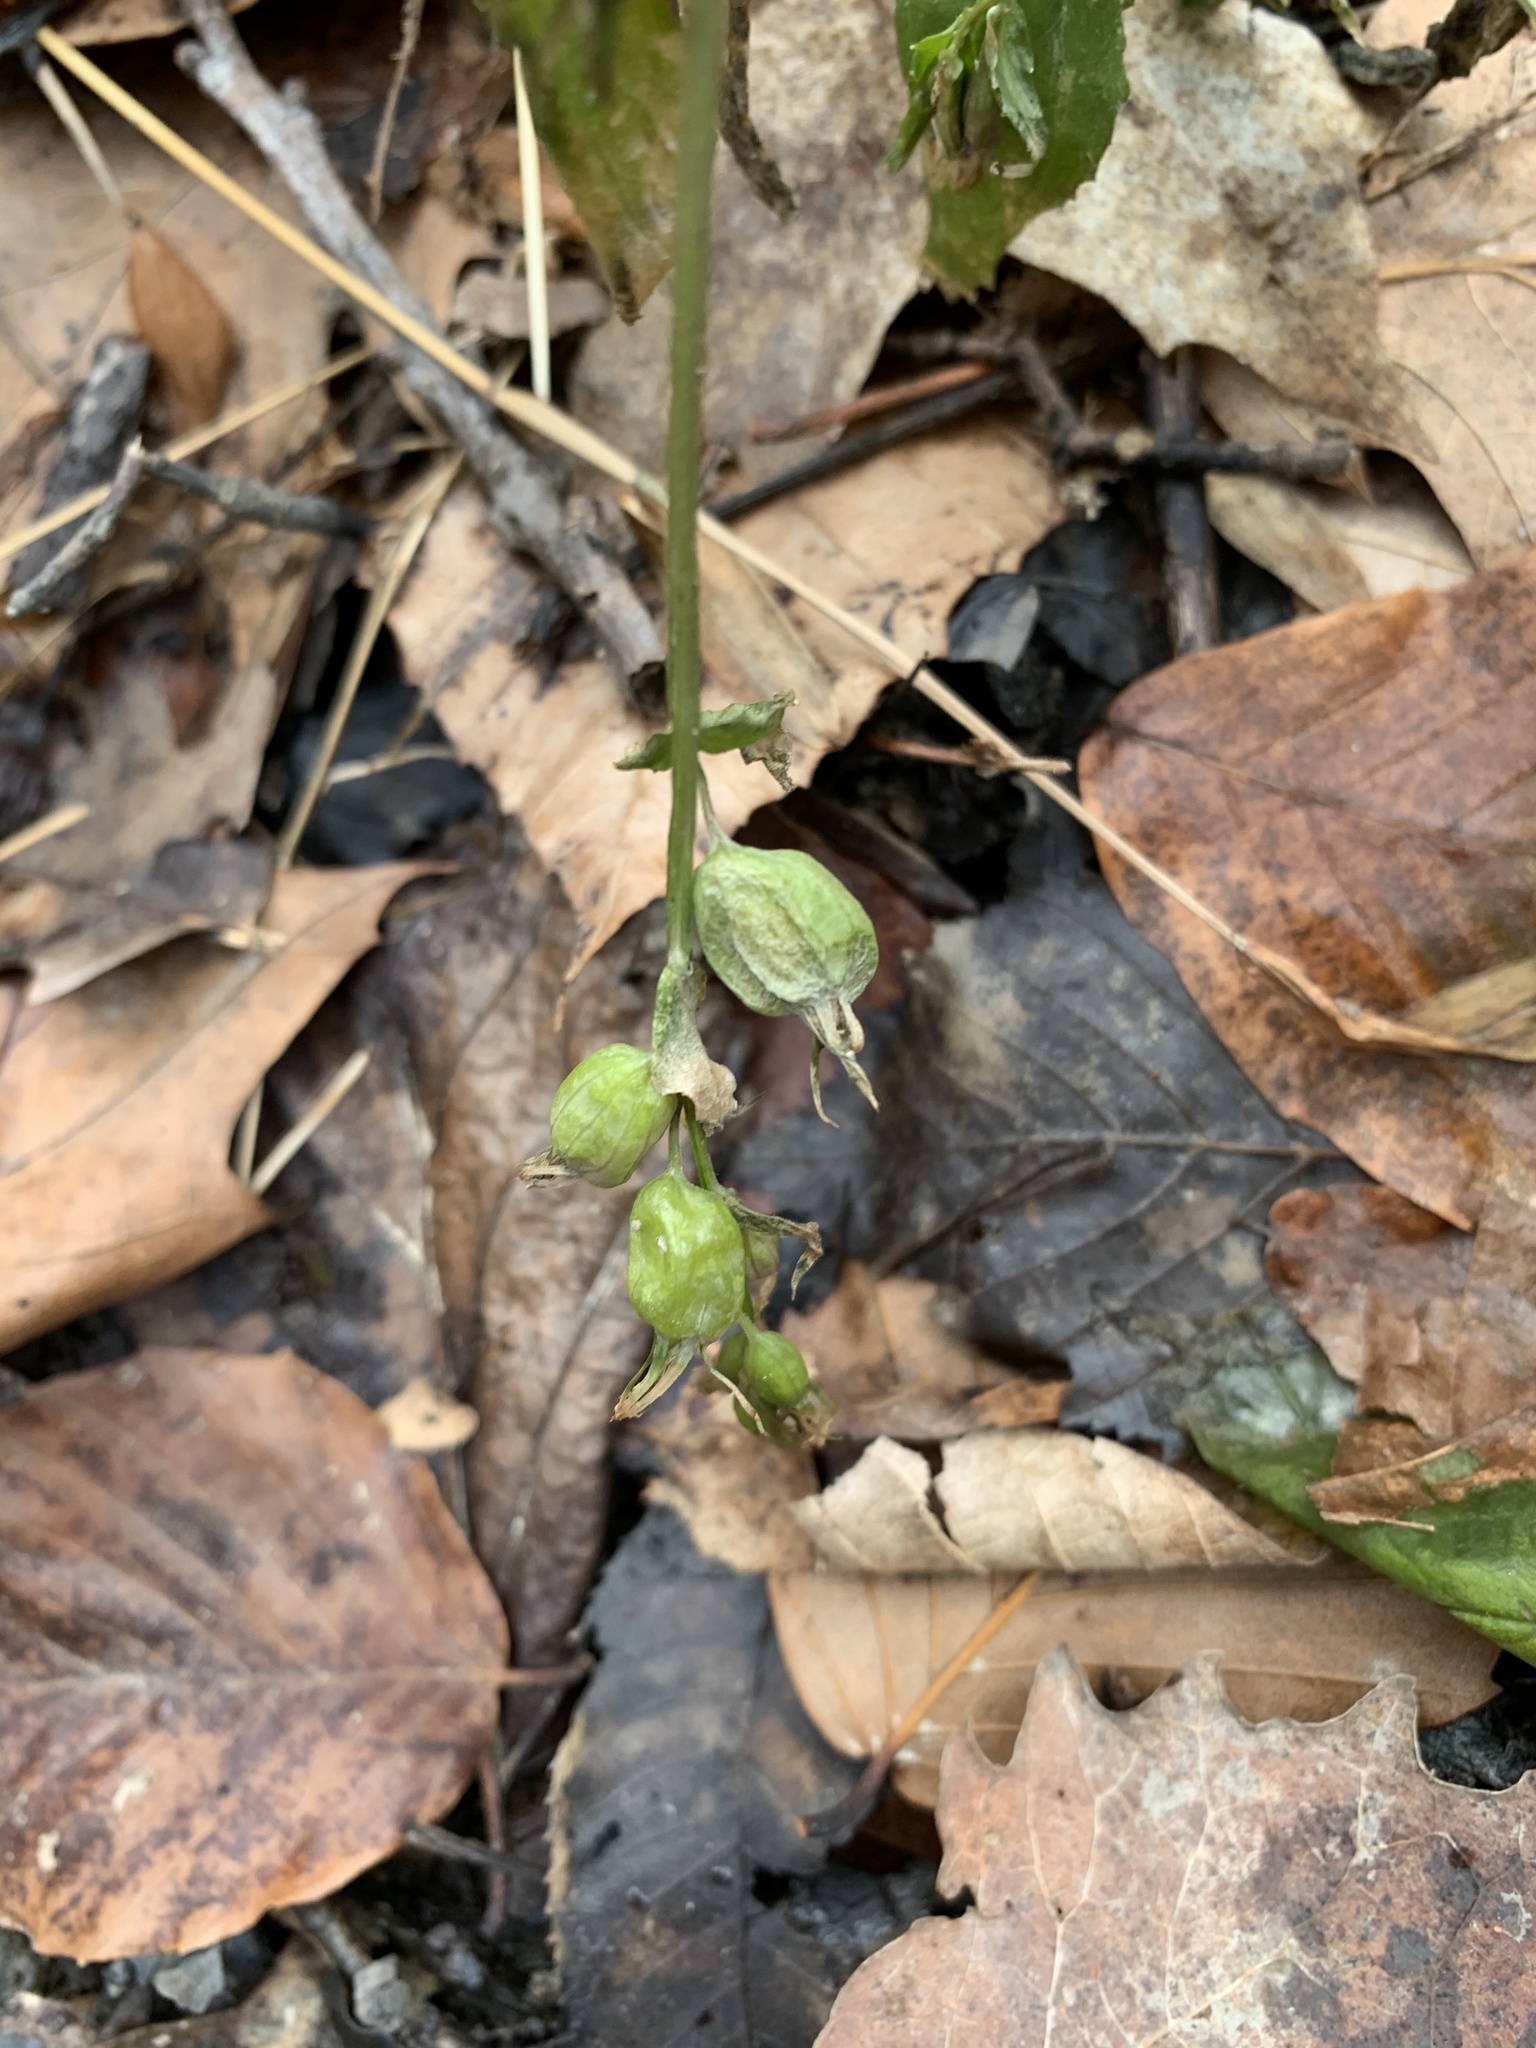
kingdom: Plantae
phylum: Tracheophyta
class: Magnoliopsida
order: Asterales
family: Campanulaceae
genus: Lobelia
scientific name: Lobelia inflata
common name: Indian tobacco
